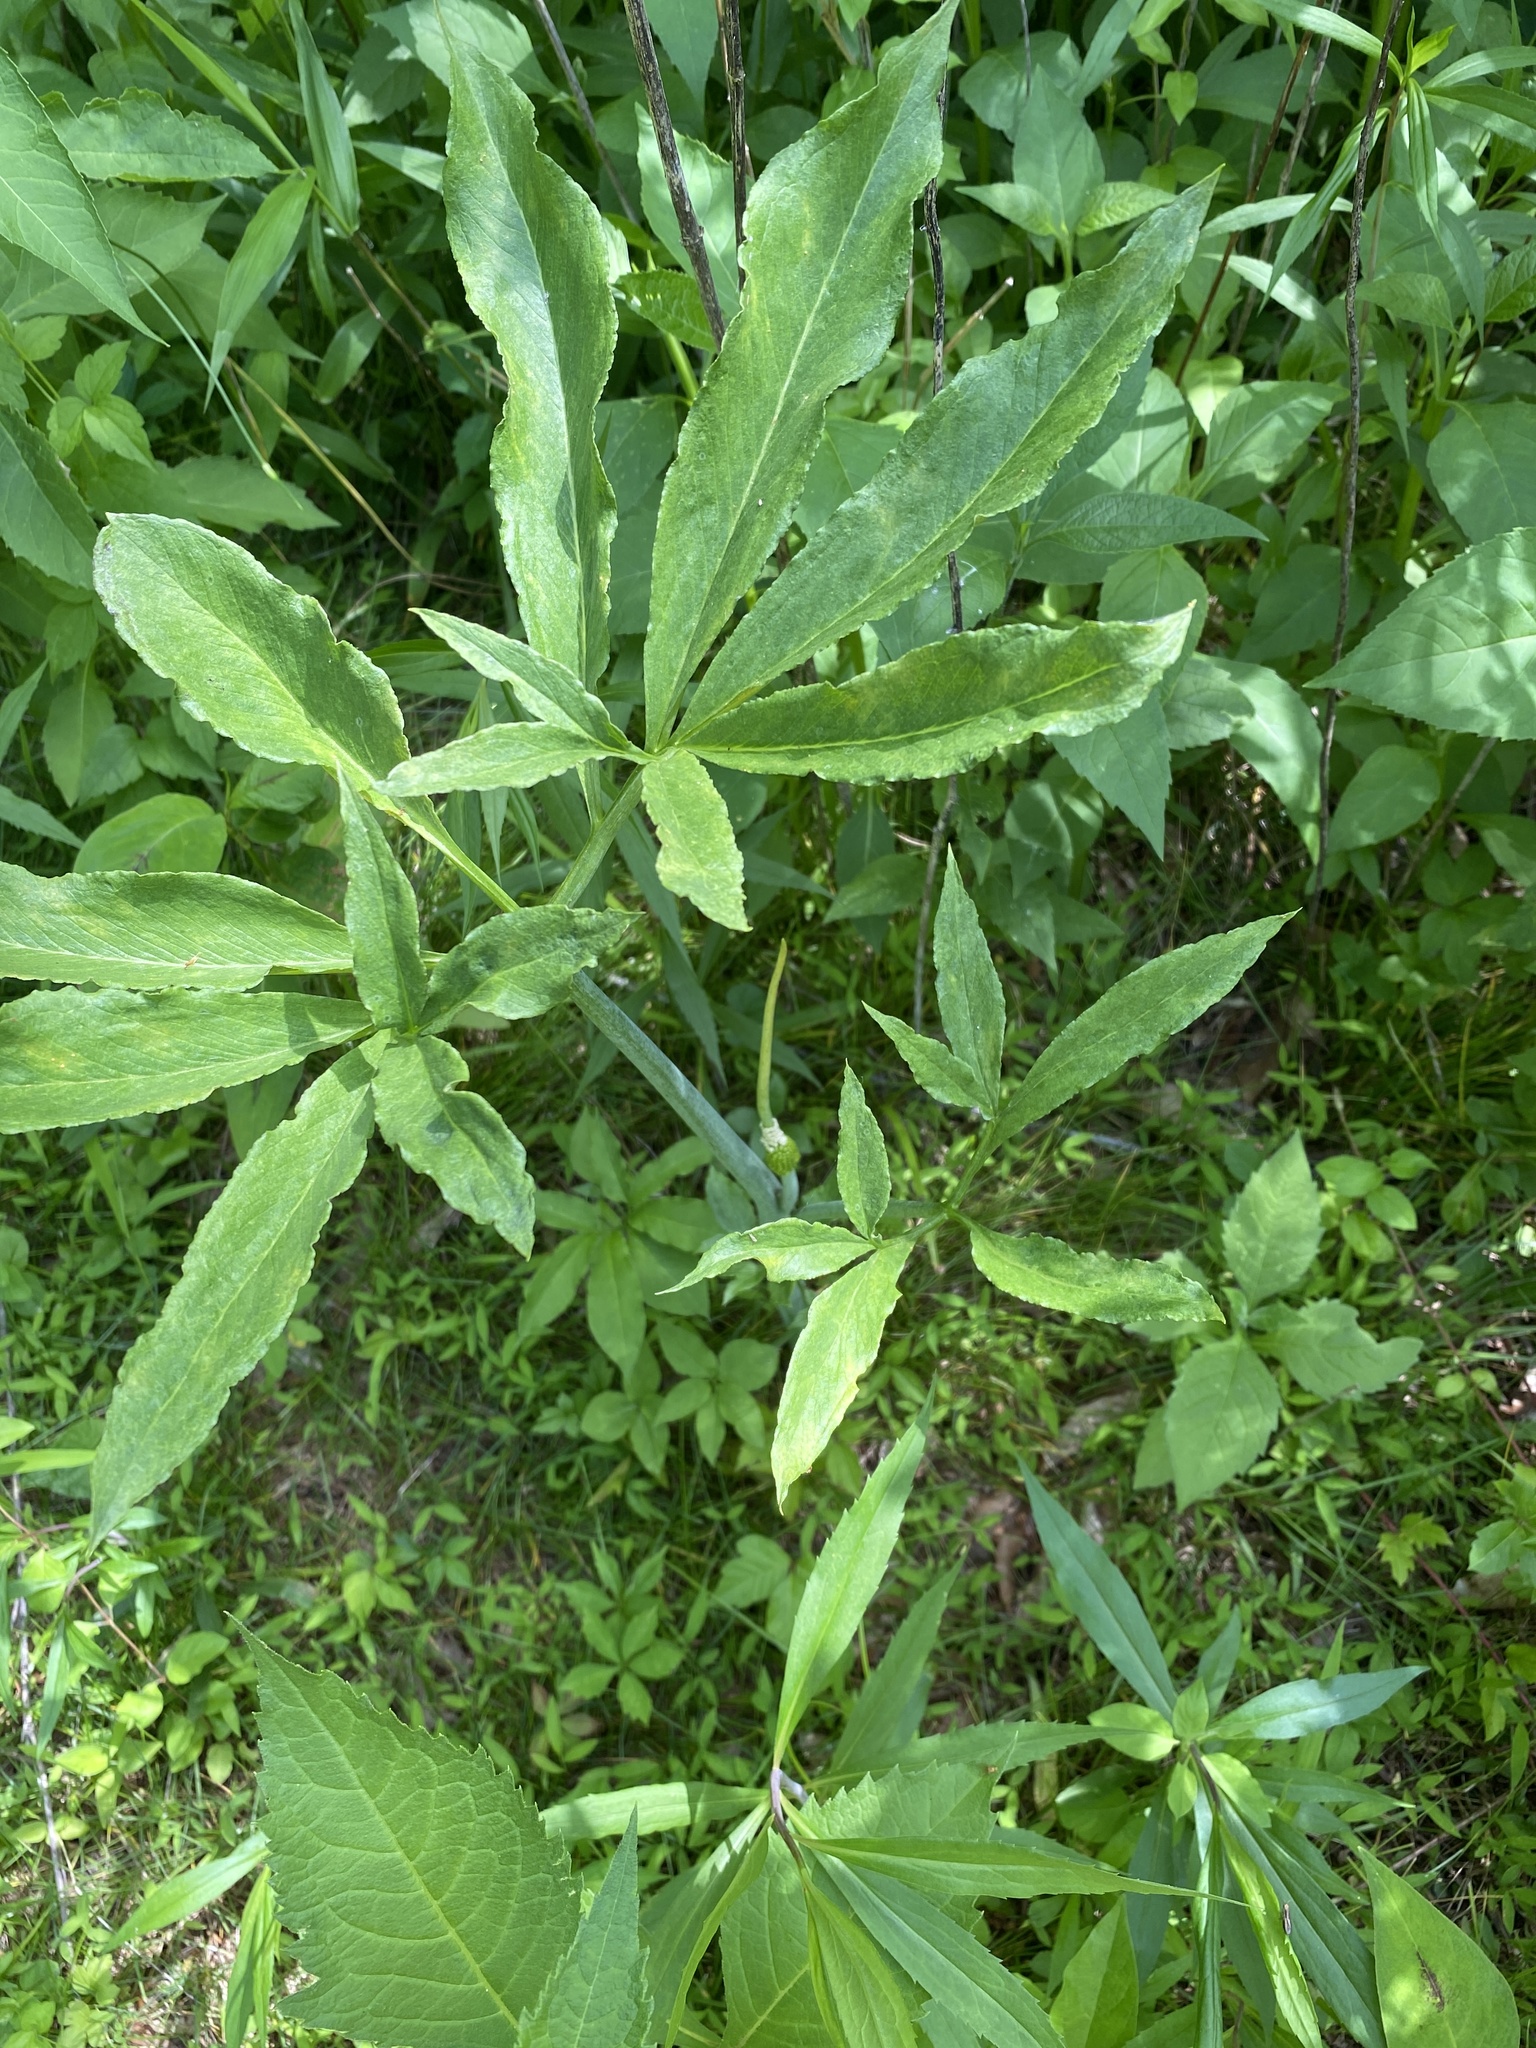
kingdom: Plantae
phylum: Tracheophyta
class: Liliopsida
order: Alismatales
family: Araceae
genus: Arisaema
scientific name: Arisaema dracontium
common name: Dragon-arum
